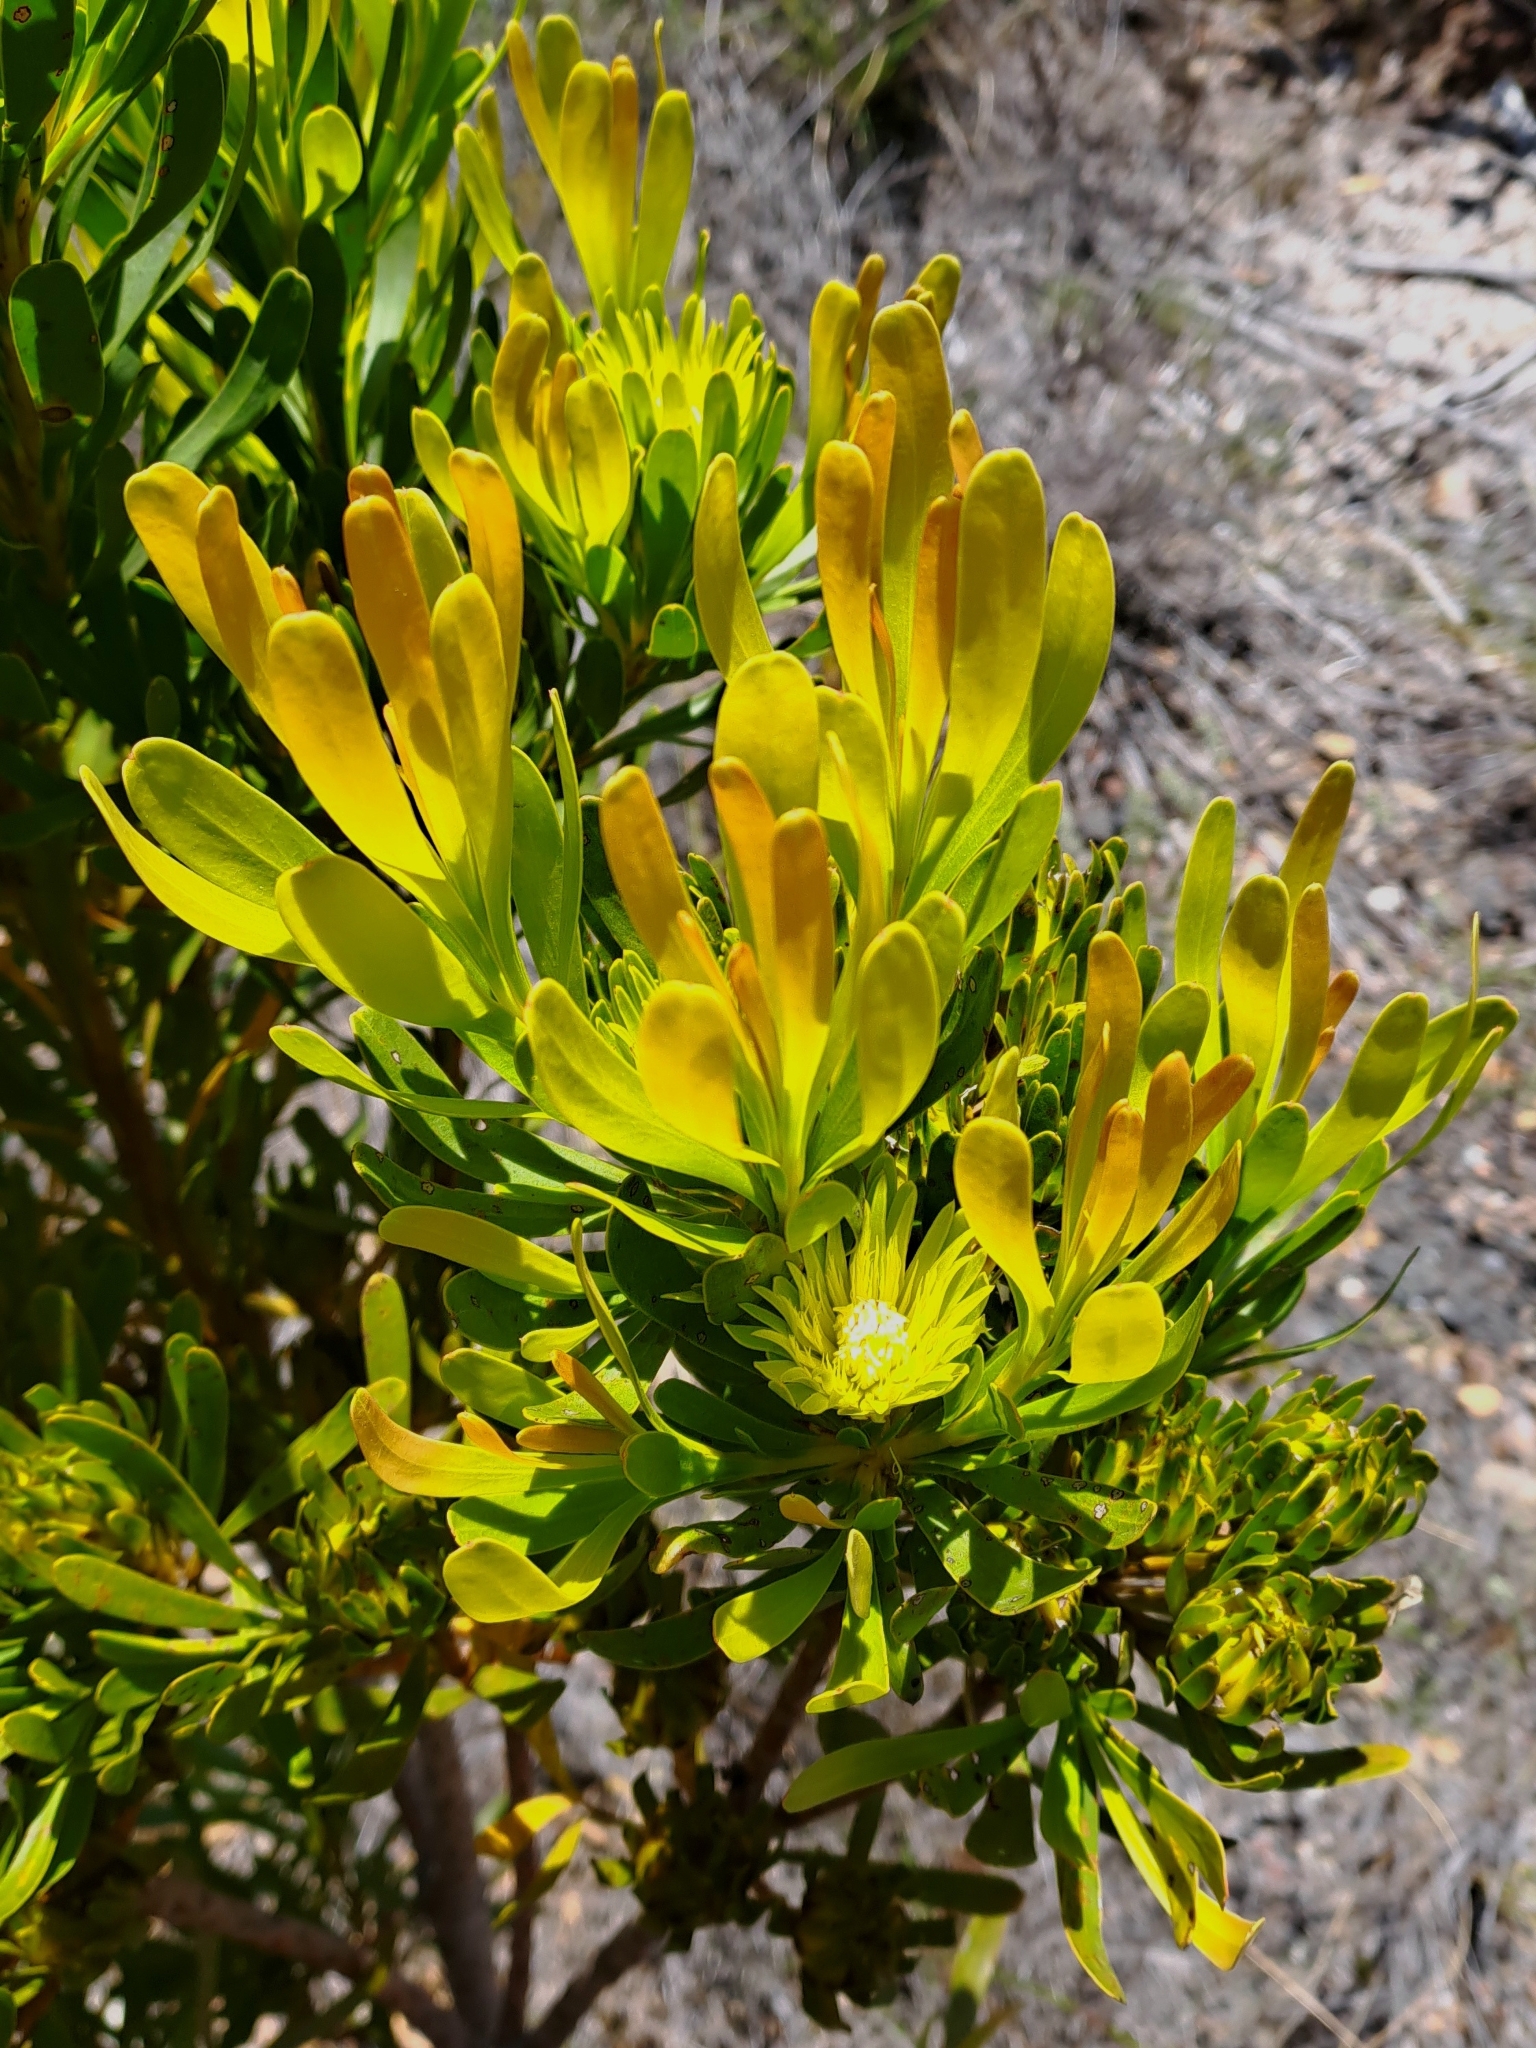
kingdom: Plantae
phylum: Tracheophyta
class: Magnoliopsida
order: Proteales
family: Proteaceae
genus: Aulax
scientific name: Aulax umbellata
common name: Broad-leaf featherbush
